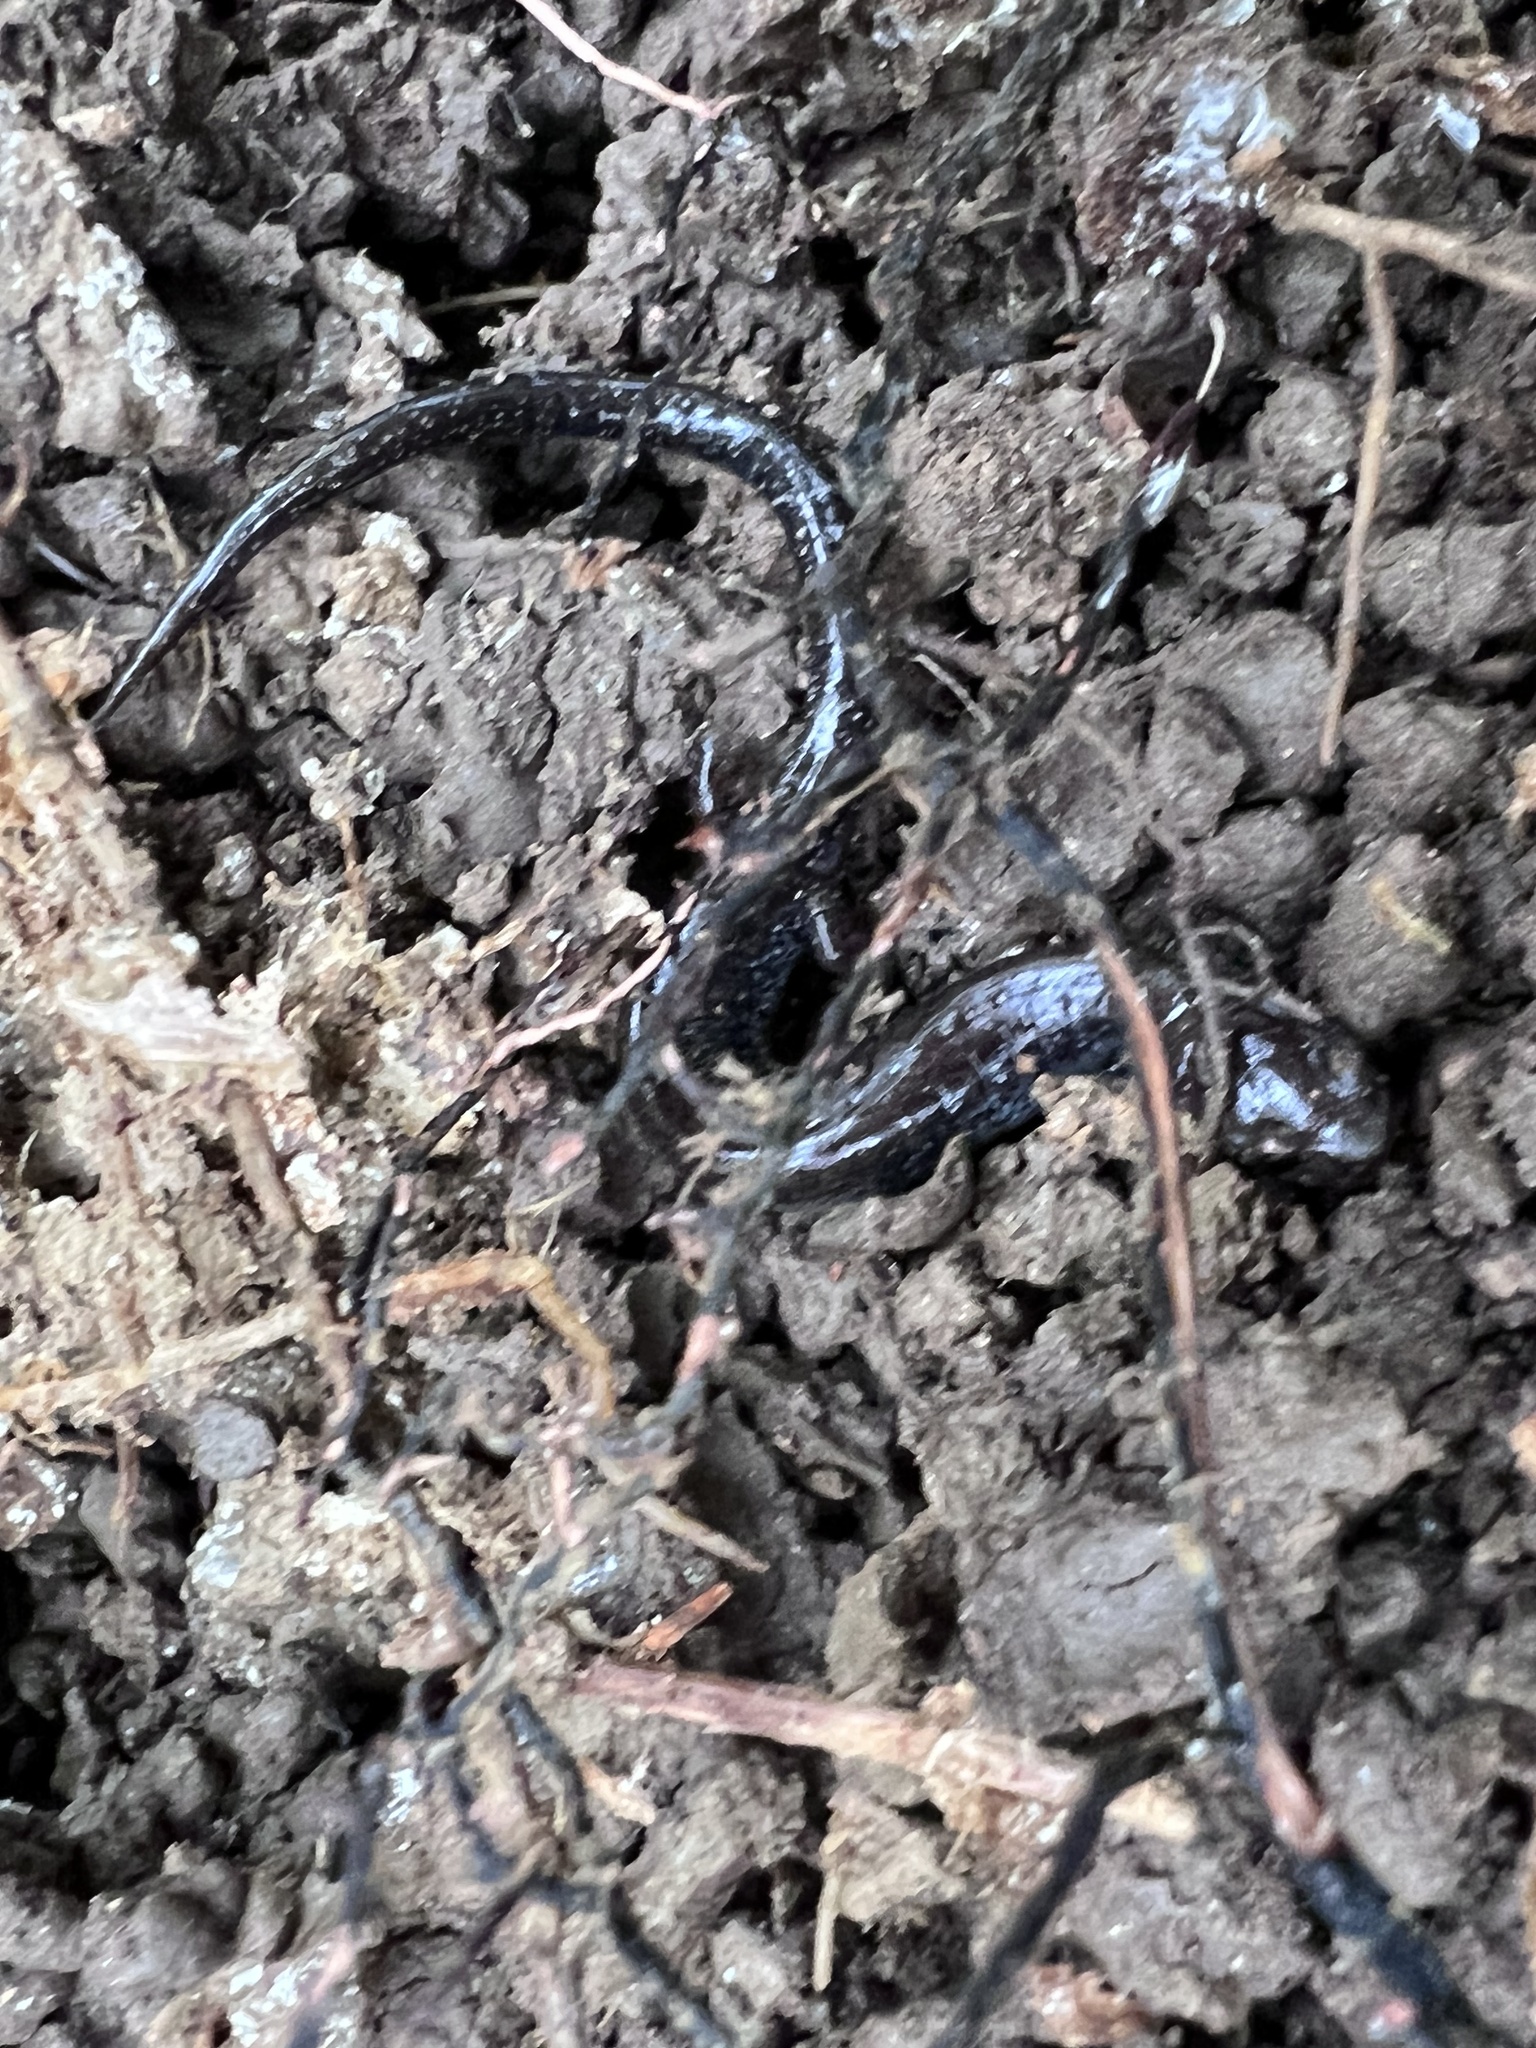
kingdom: Animalia
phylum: Chordata
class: Amphibia
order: Caudata
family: Plethodontidae
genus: Plethodon
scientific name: Plethodon cinereus
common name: Redback salamander
